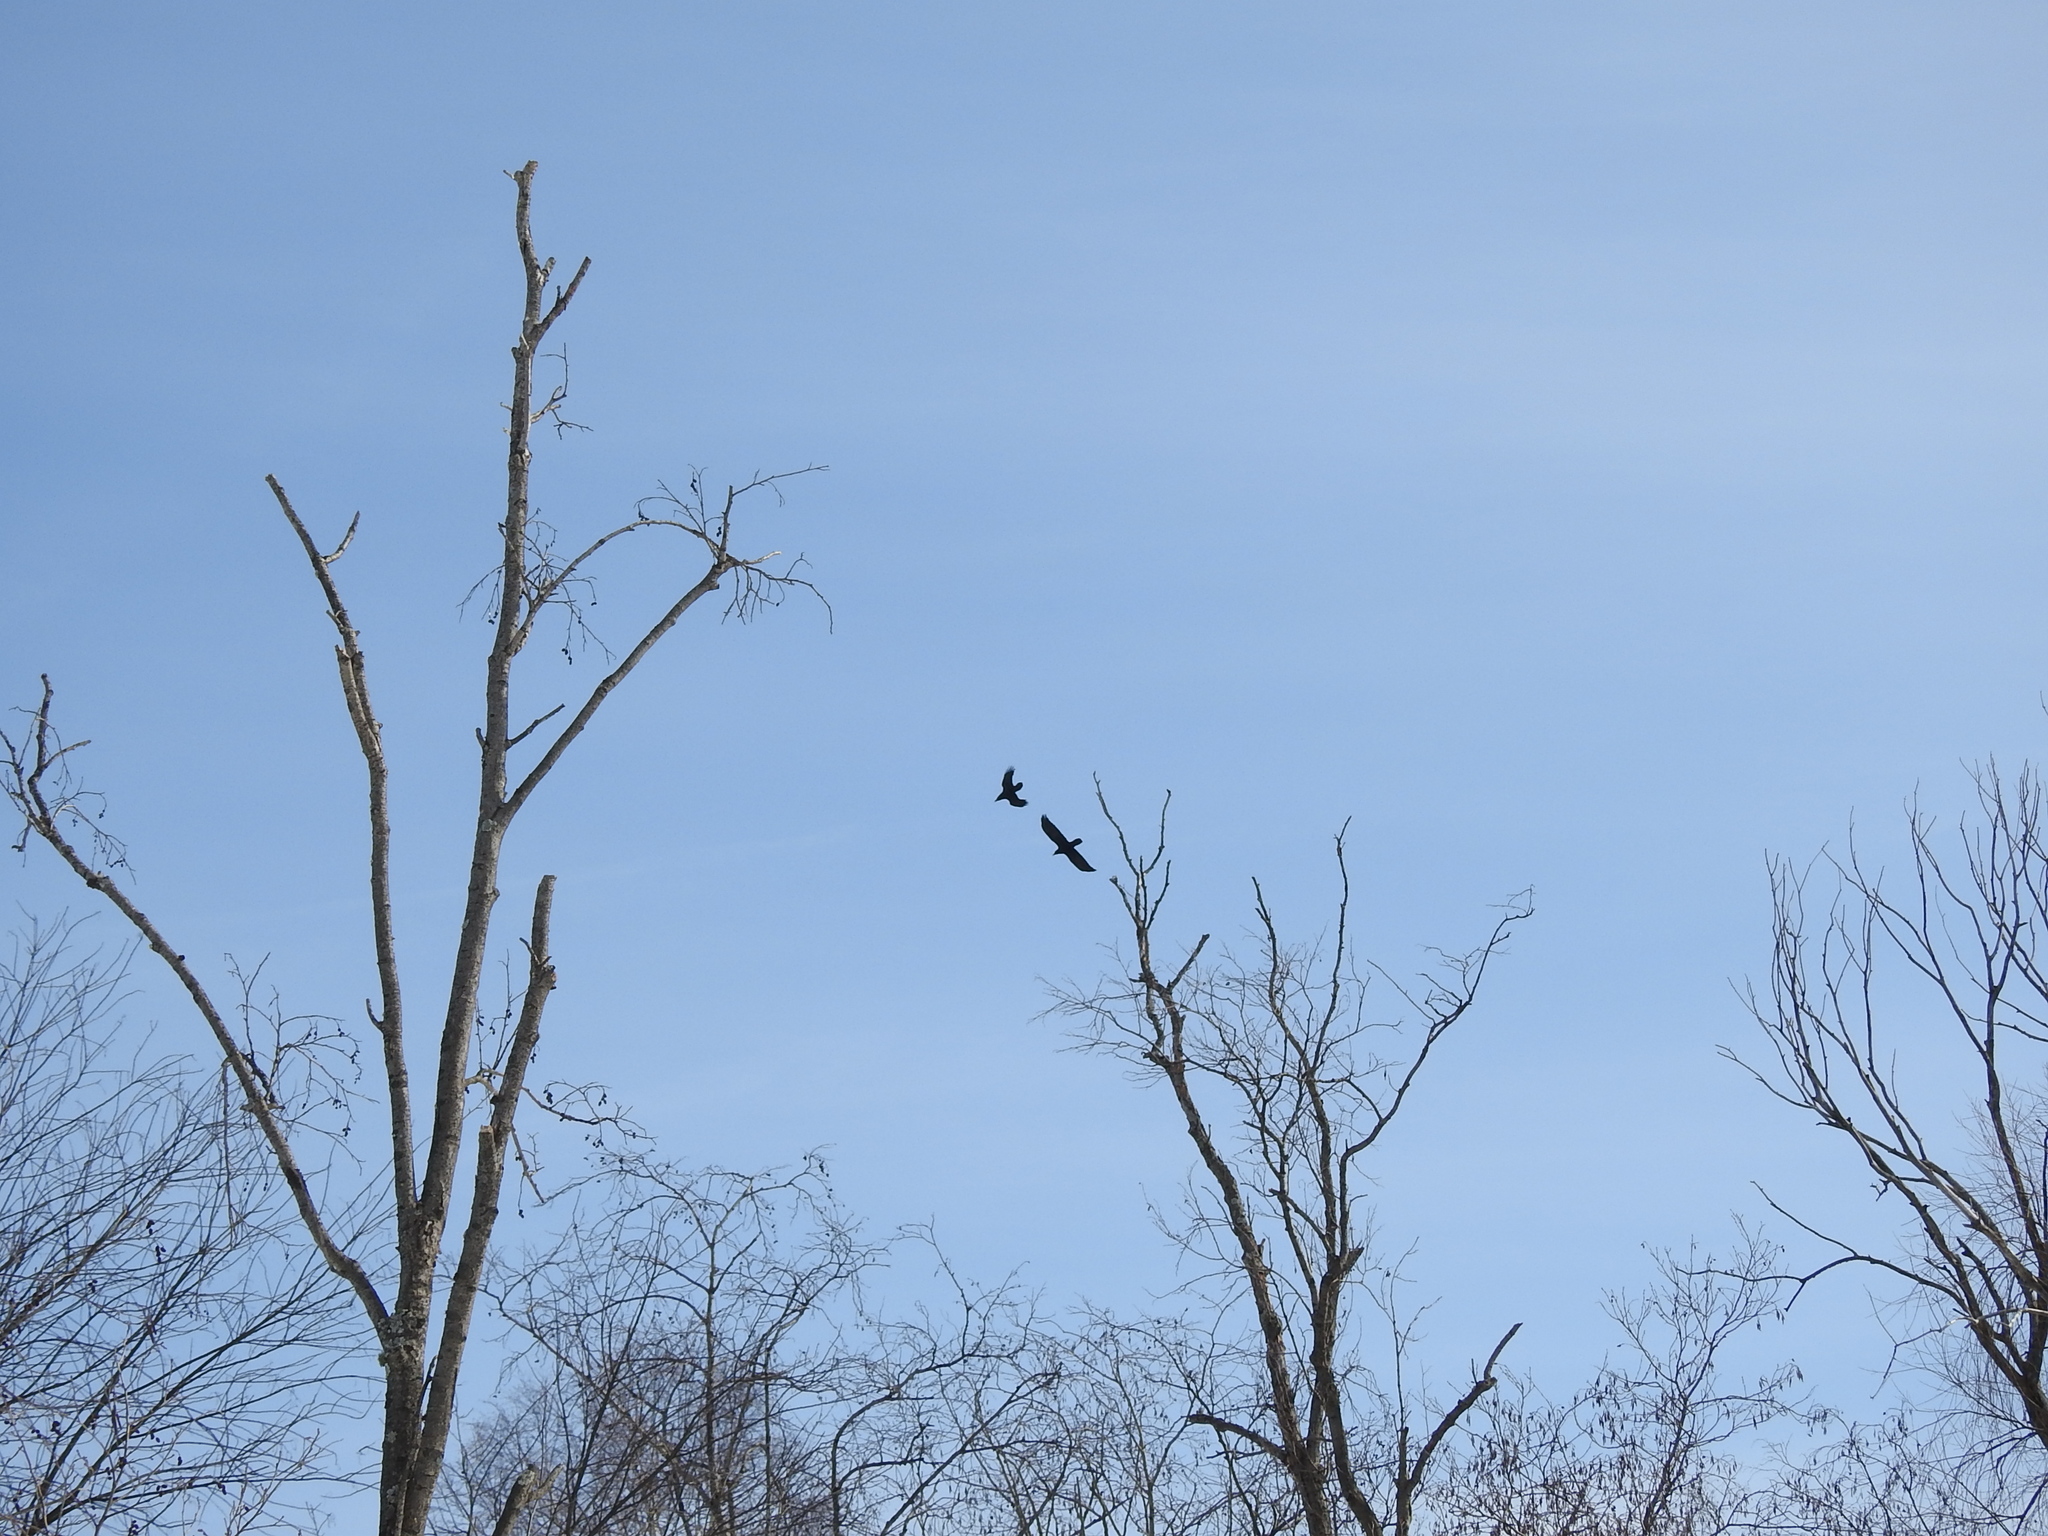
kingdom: Animalia
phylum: Chordata
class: Aves
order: Passeriformes
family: Corvidae
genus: Corvus
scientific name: Corvus corax
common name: Common raven
